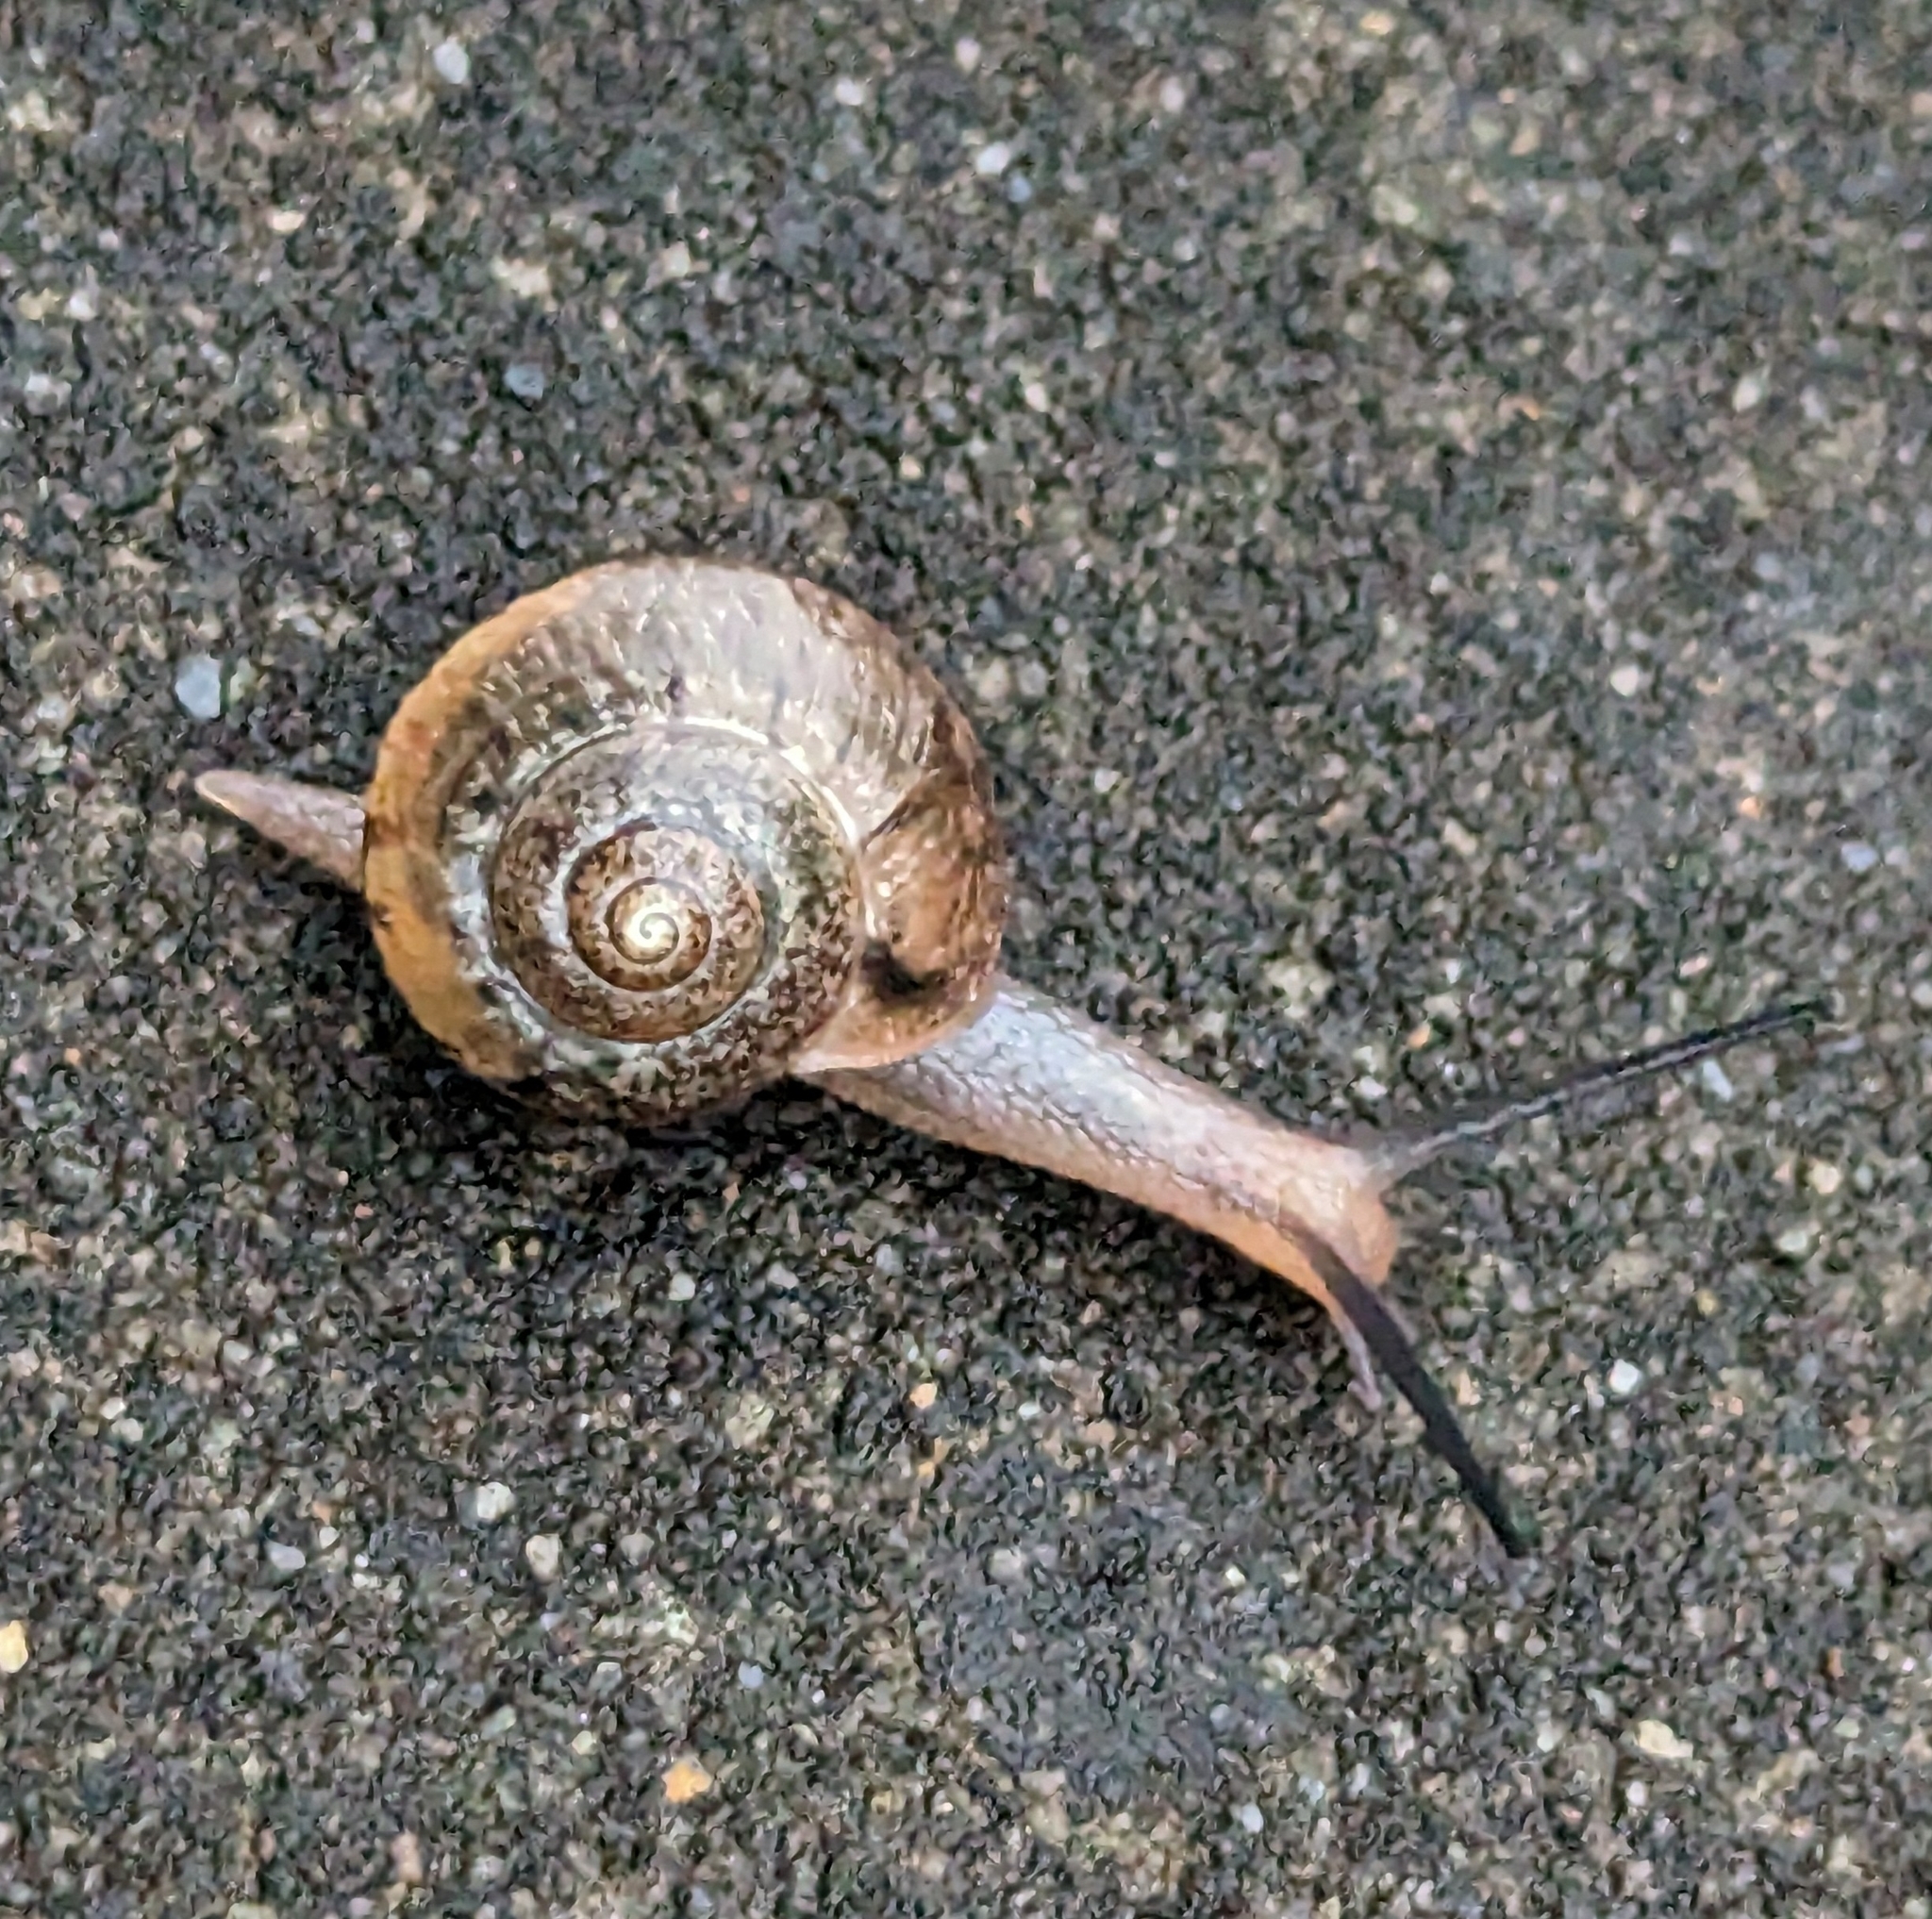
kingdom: Animalia
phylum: Mollusca
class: Gastropoda
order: Stylommatophora
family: Camaenidae
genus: Bradybaena
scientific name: Bradybaena similaris
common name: Asian trampsnail
